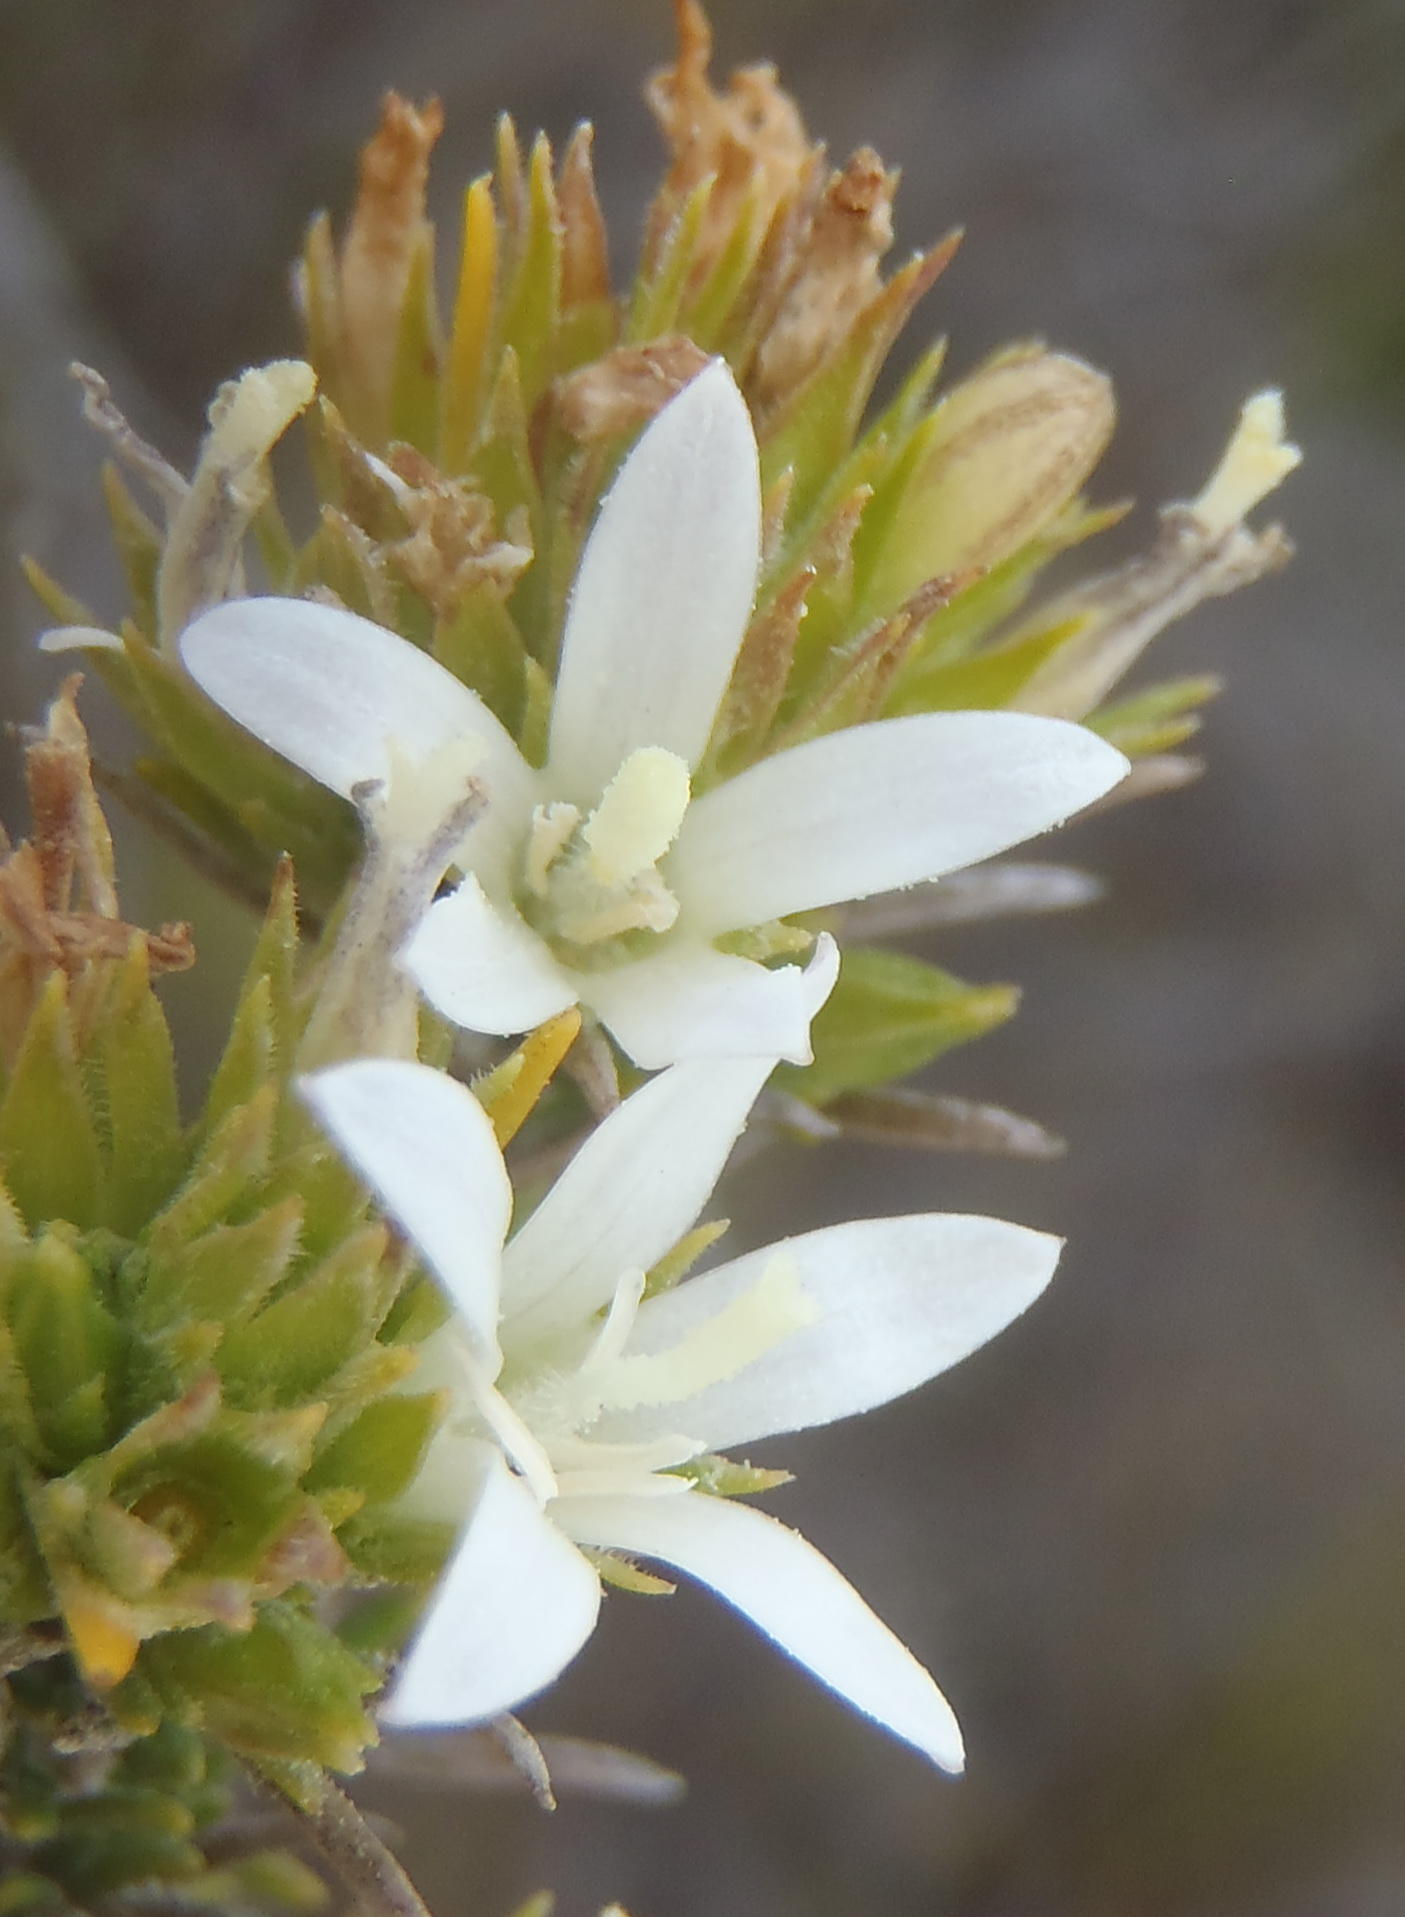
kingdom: Plantae
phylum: Tracheophyta
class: Magnoliopsida
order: Asterales
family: Campanulaceae
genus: Merciera
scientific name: Merciera leptoloba
